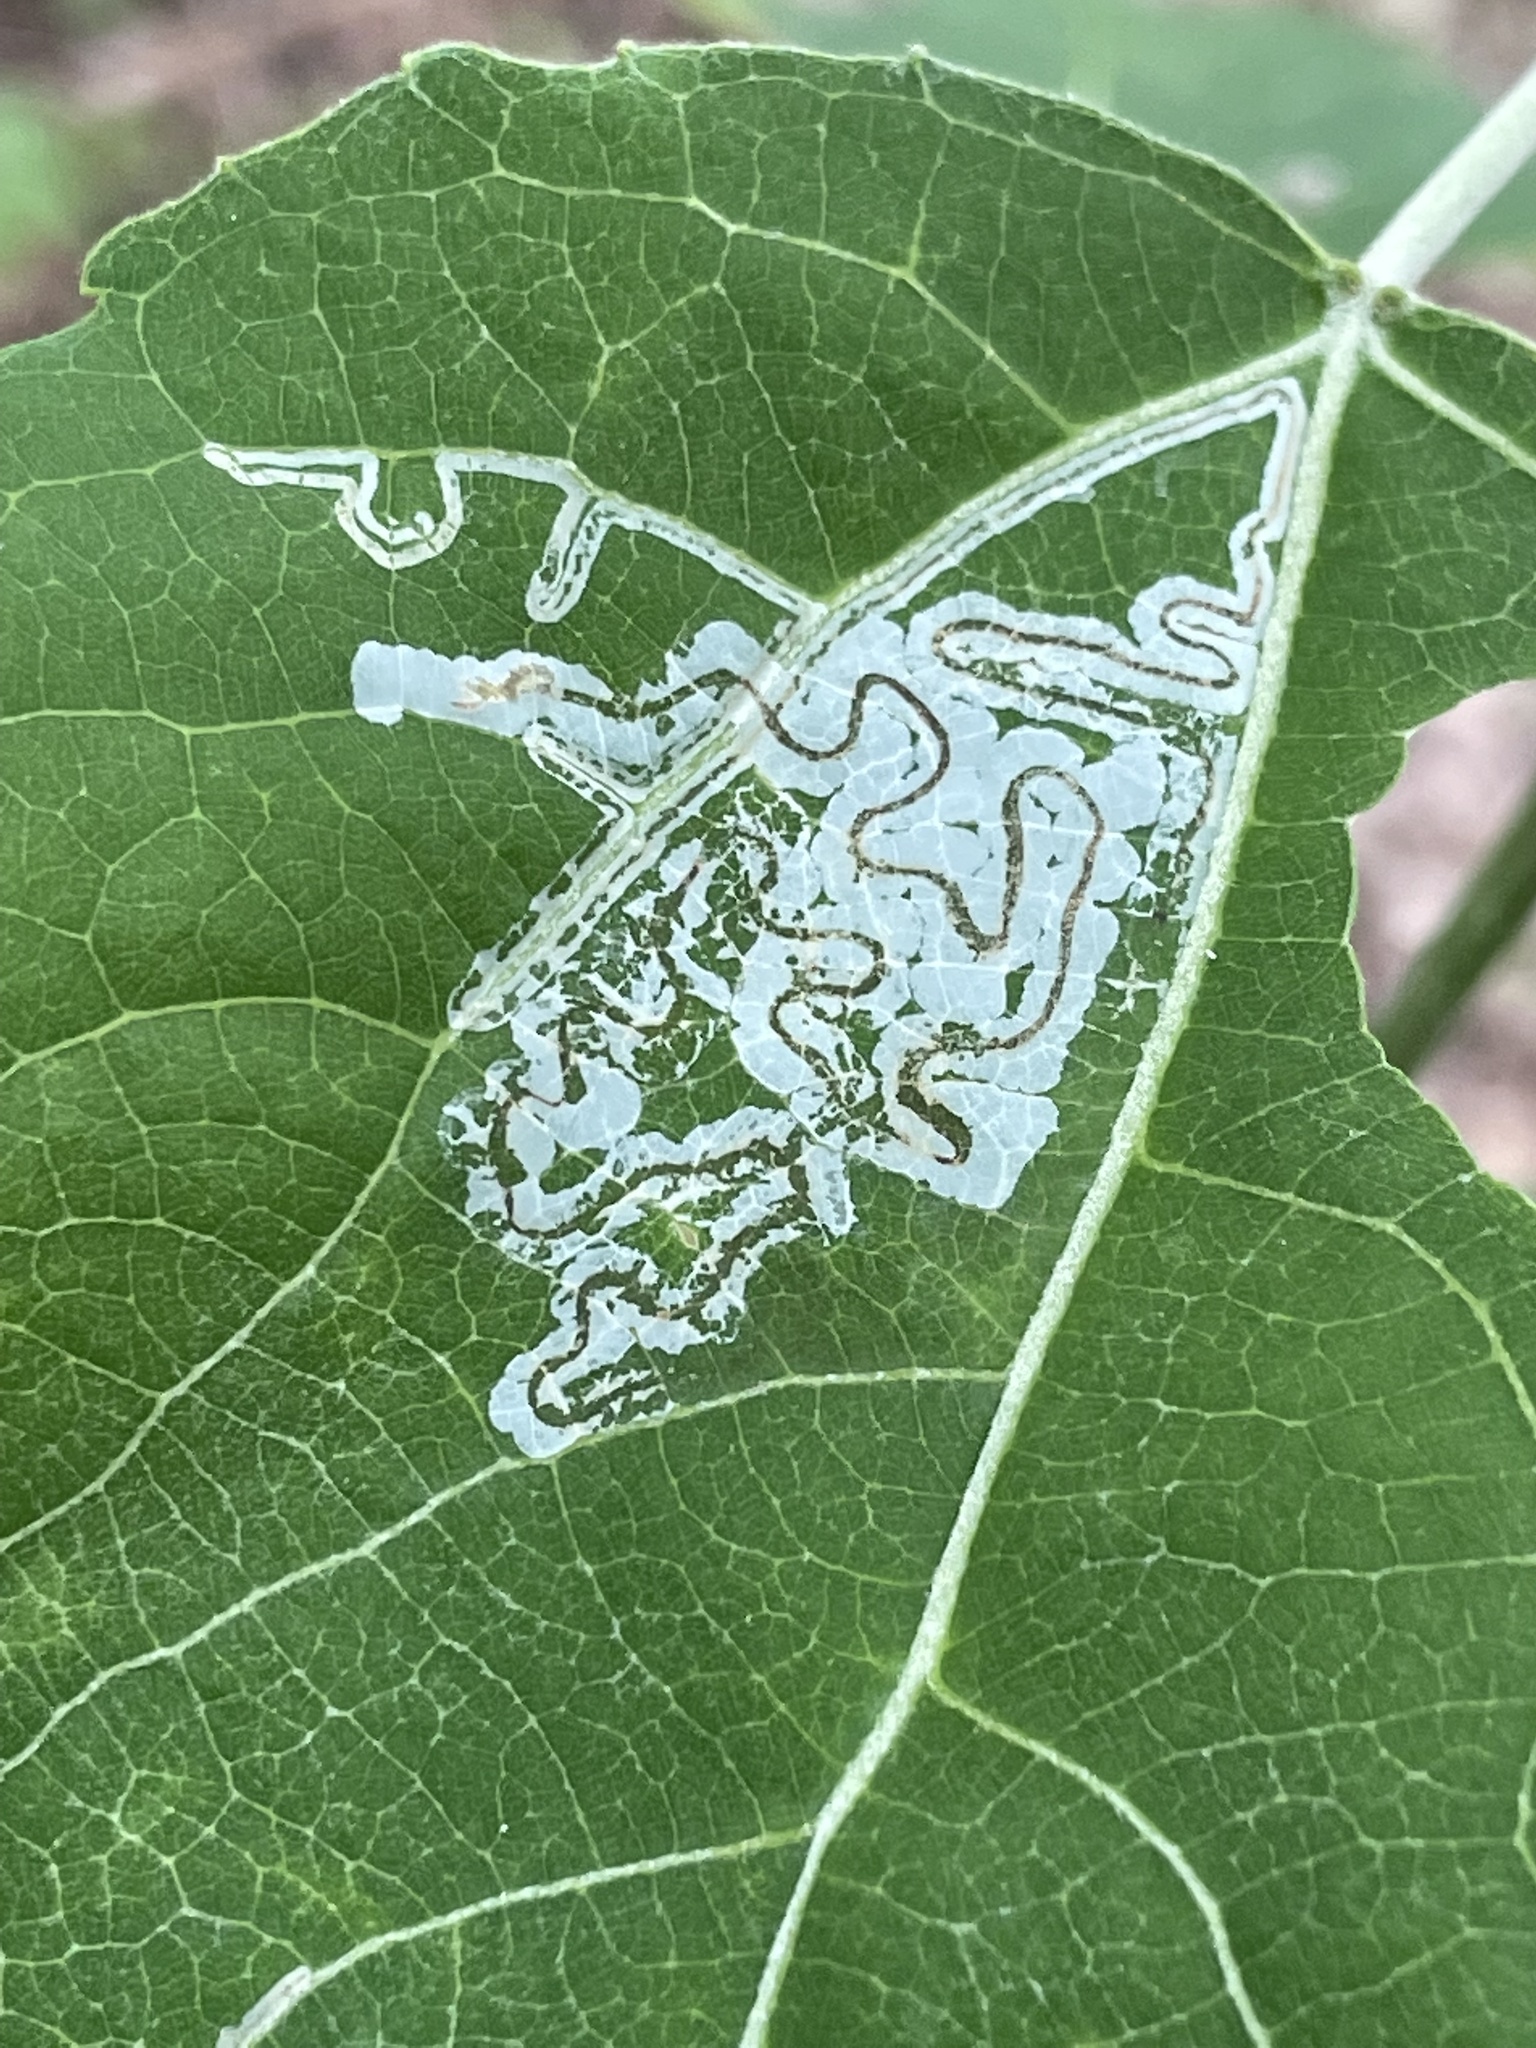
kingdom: Animalia
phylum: Arthropoda
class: Insecta
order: Lepidoptera
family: Gracillariidae
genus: Phyllocnistis
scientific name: Phyllocnistis populiella
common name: Aspen serpentine leafminer moth
